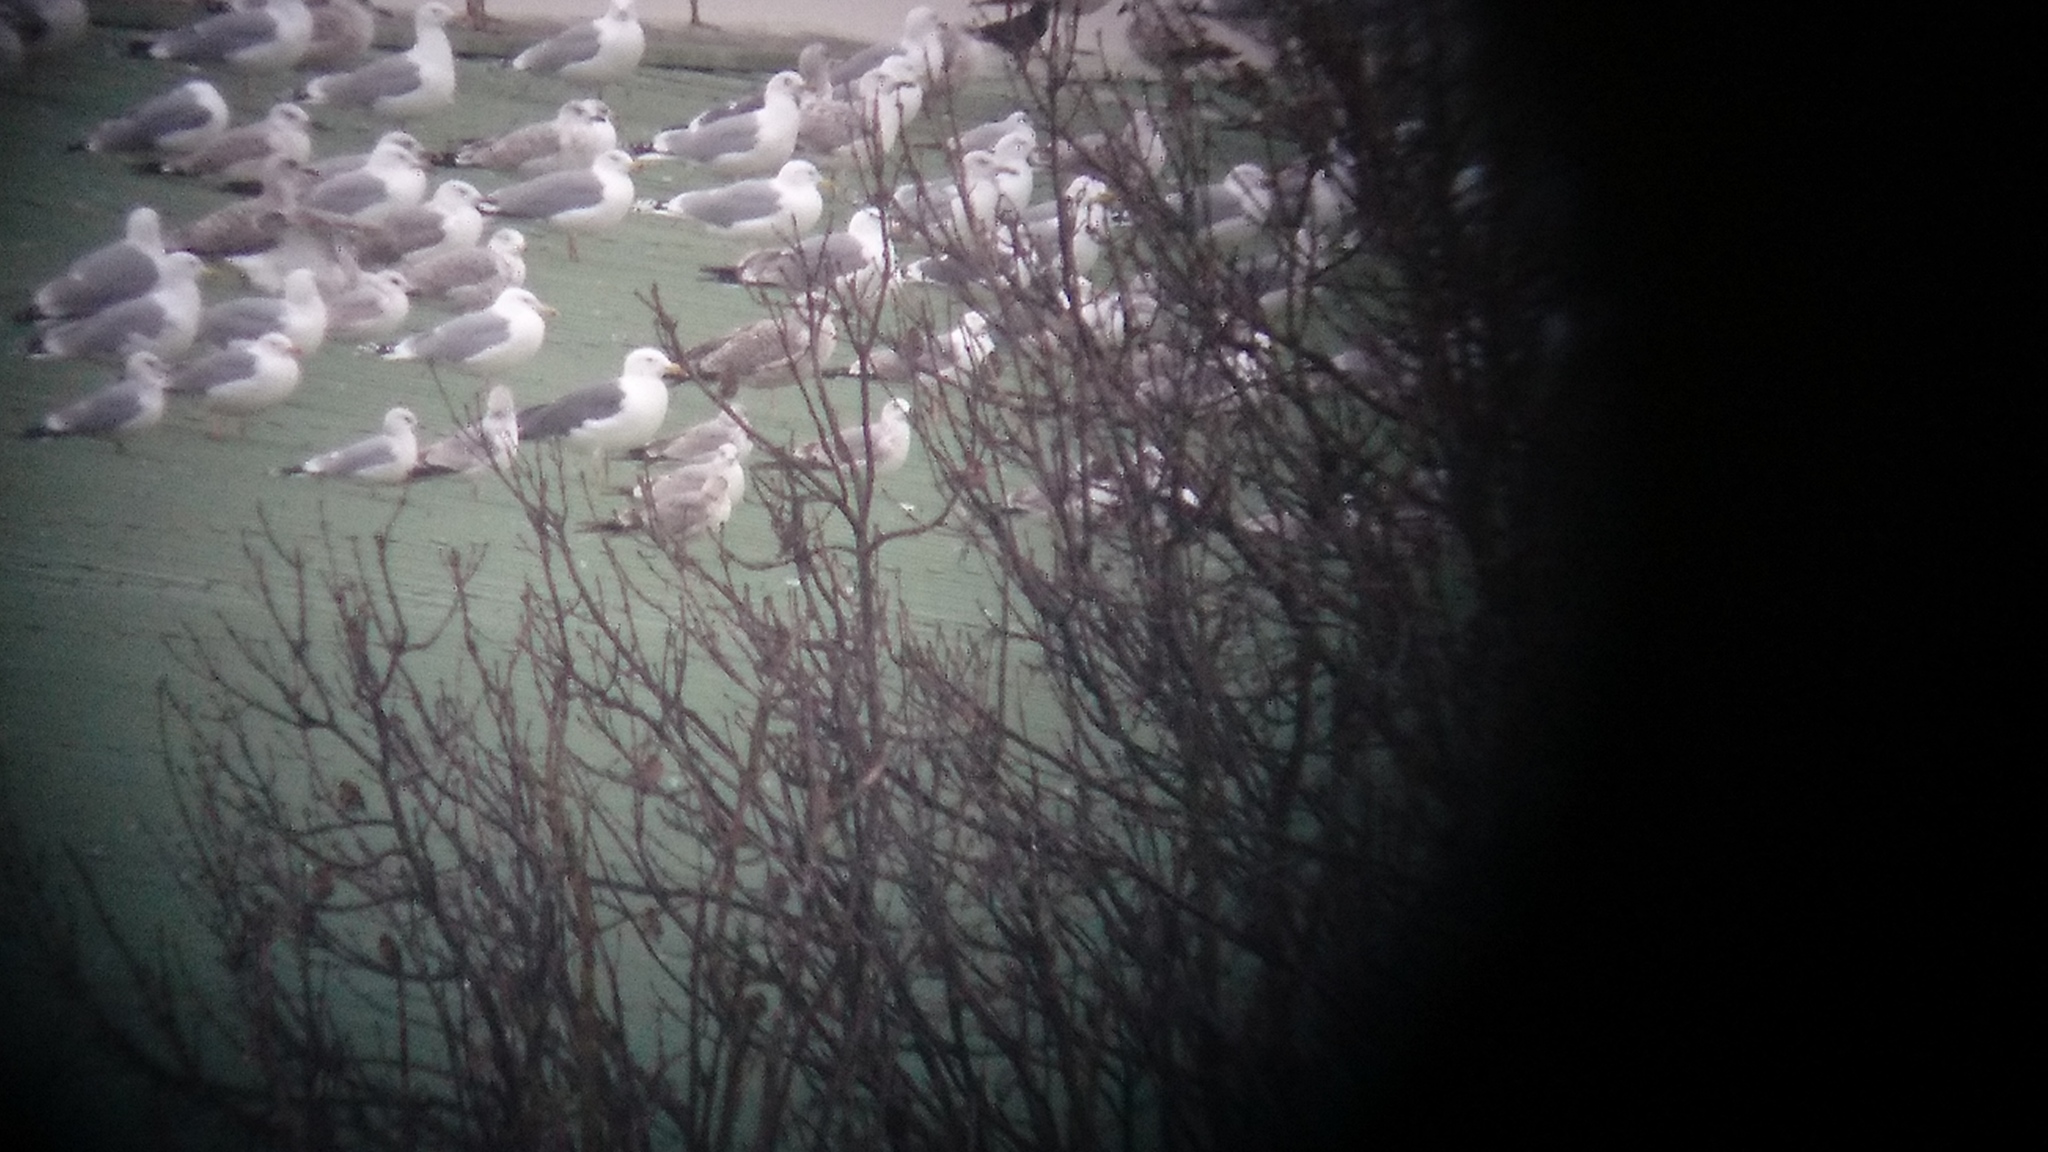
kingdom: Animalia
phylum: Chordata
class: Aves
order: Charadriiformes
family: Laridae
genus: Larus
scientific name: Larus marinus
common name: Great black-backed gull
